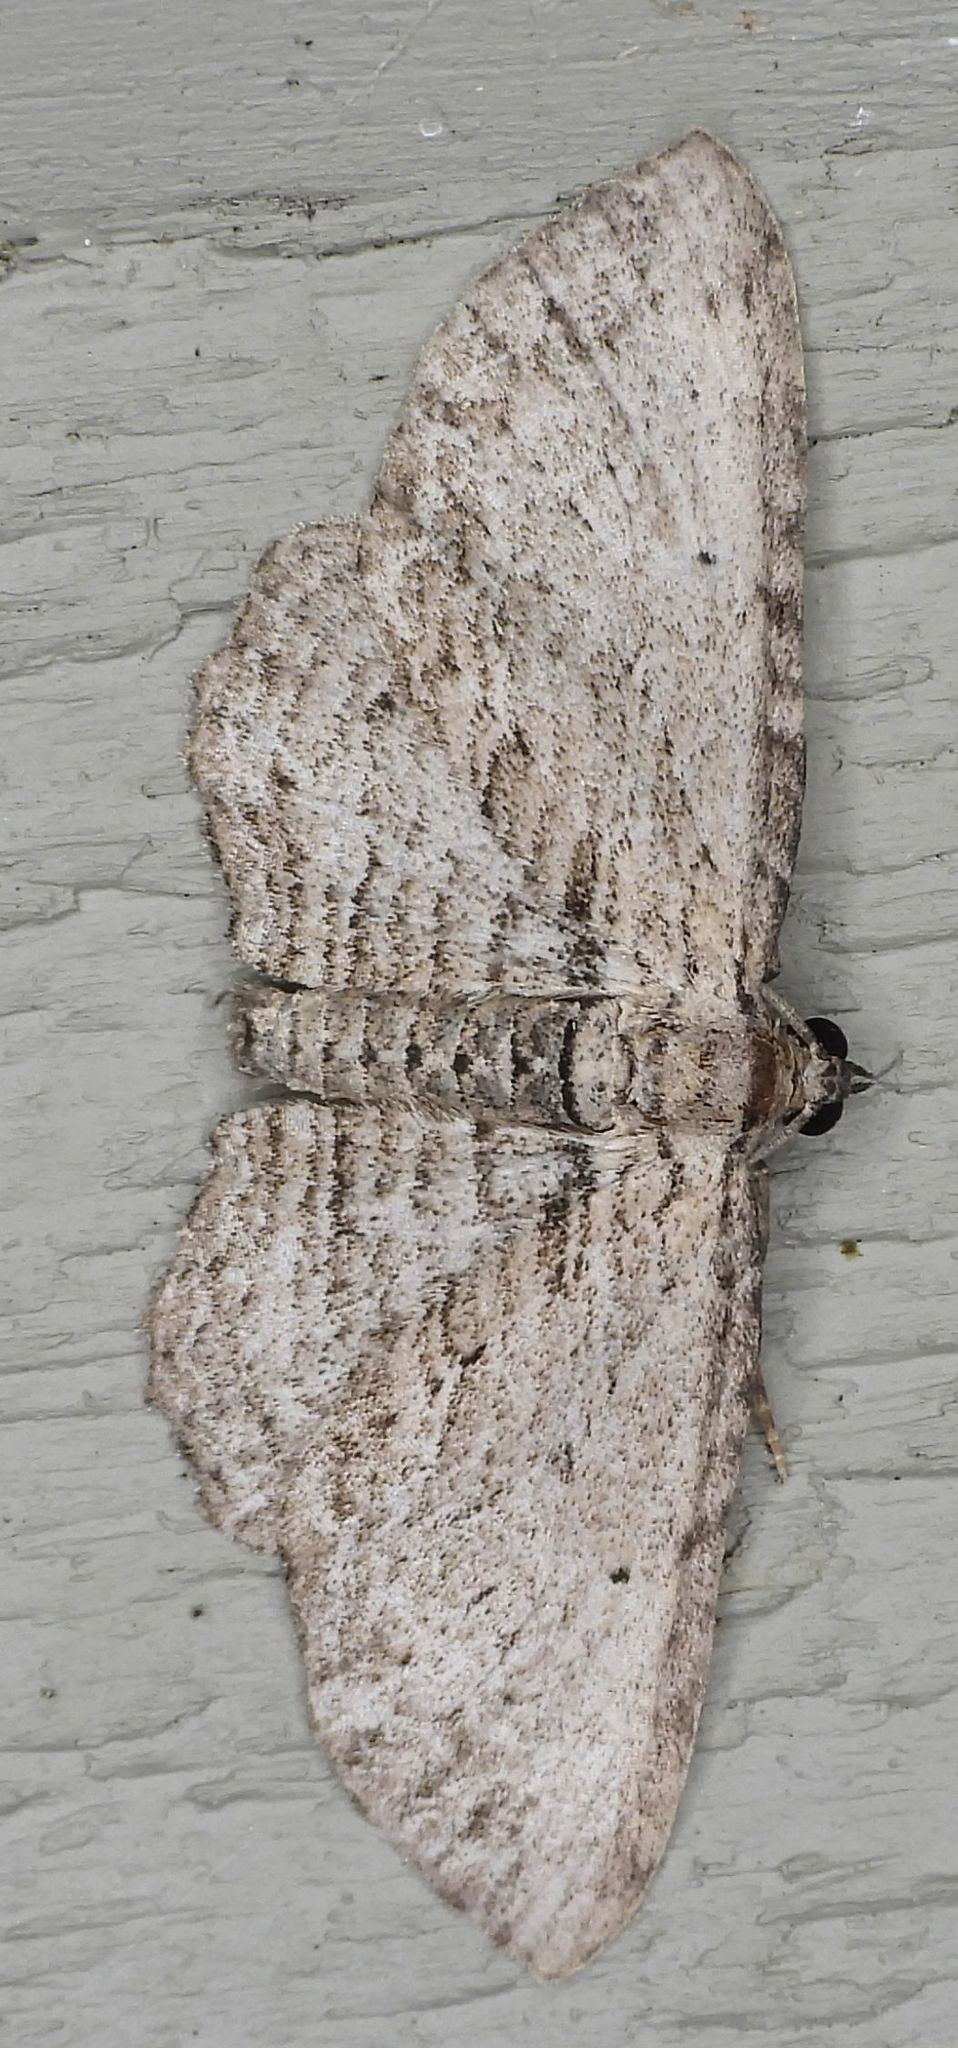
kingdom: Animalia
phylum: Arthropoda
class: Insecta
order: Lepidoptera
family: Geometridae
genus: Horisme
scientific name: Horisme intestinata
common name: Brown bark carpet
